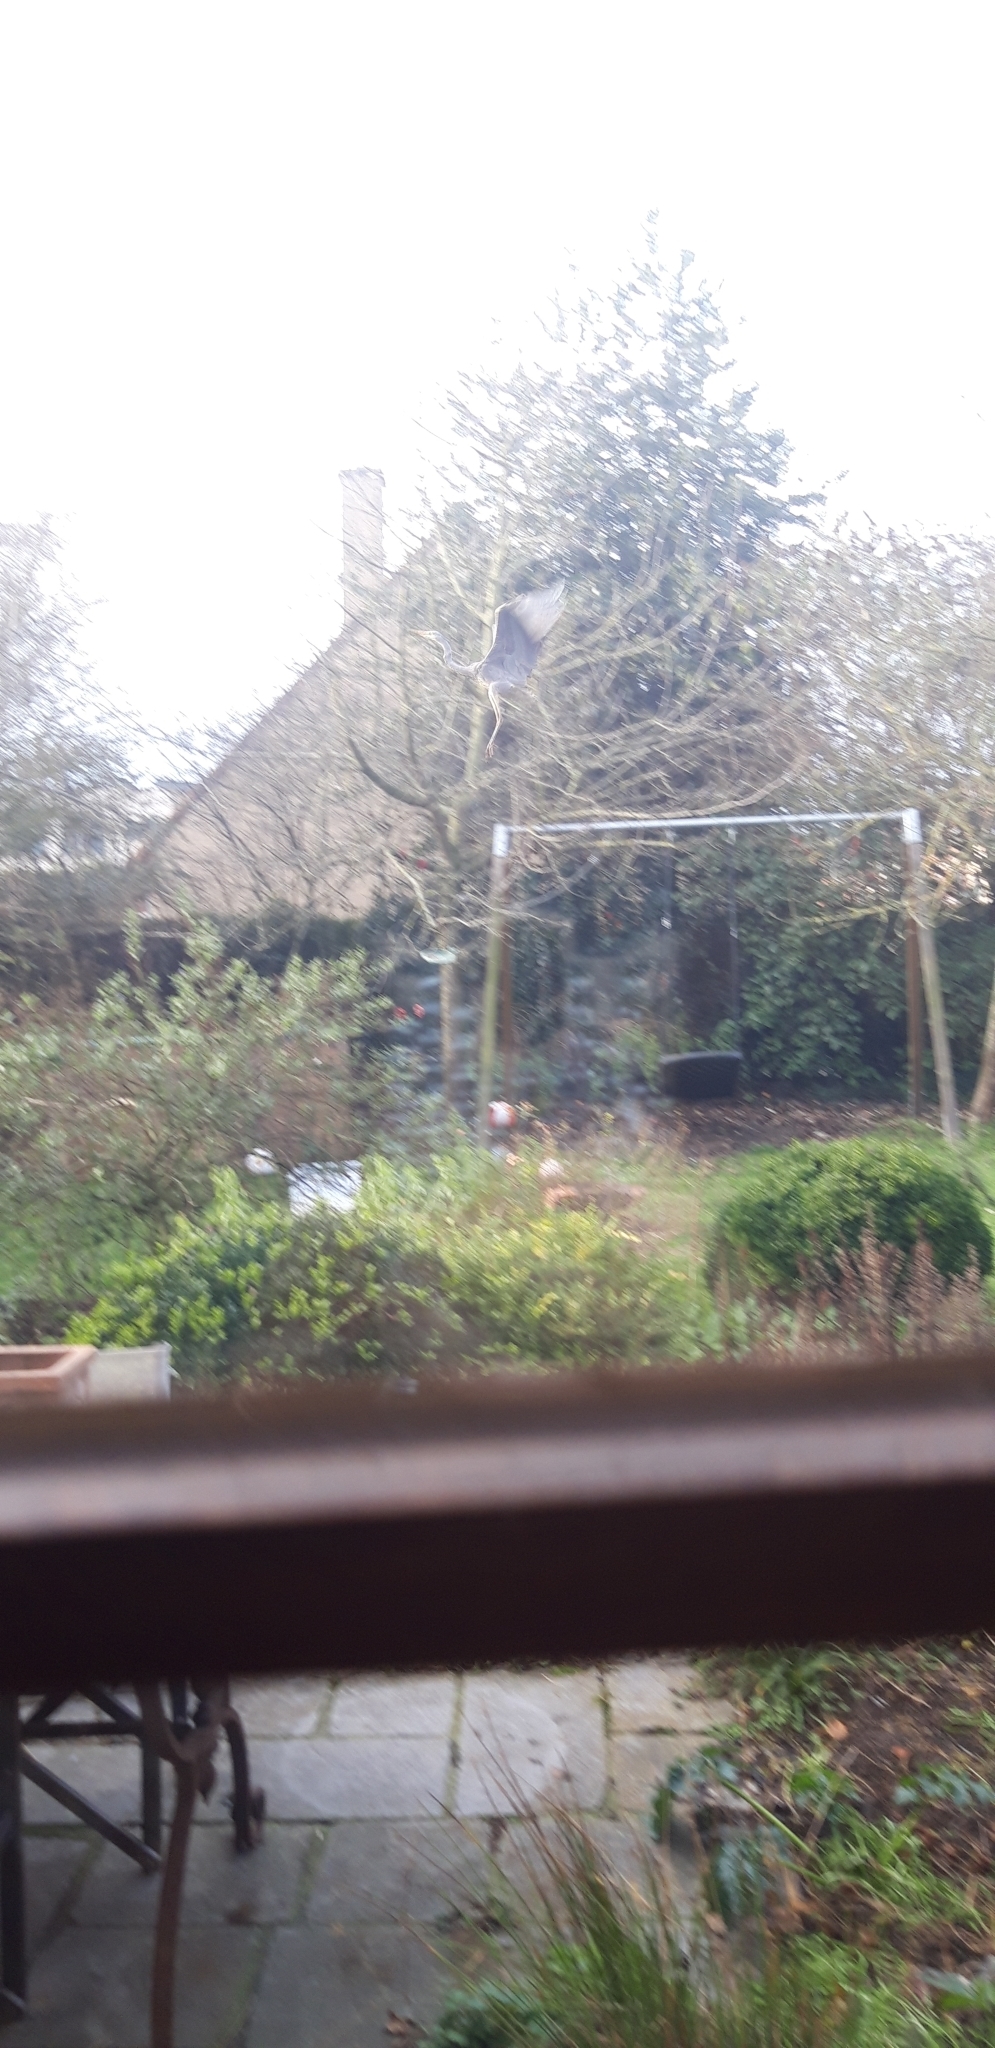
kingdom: Animalia
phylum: Chordata
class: Aves
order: Pelecaniformes
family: Ardeidae
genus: Ardea
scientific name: Ardea cinerea
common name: Grey heron
